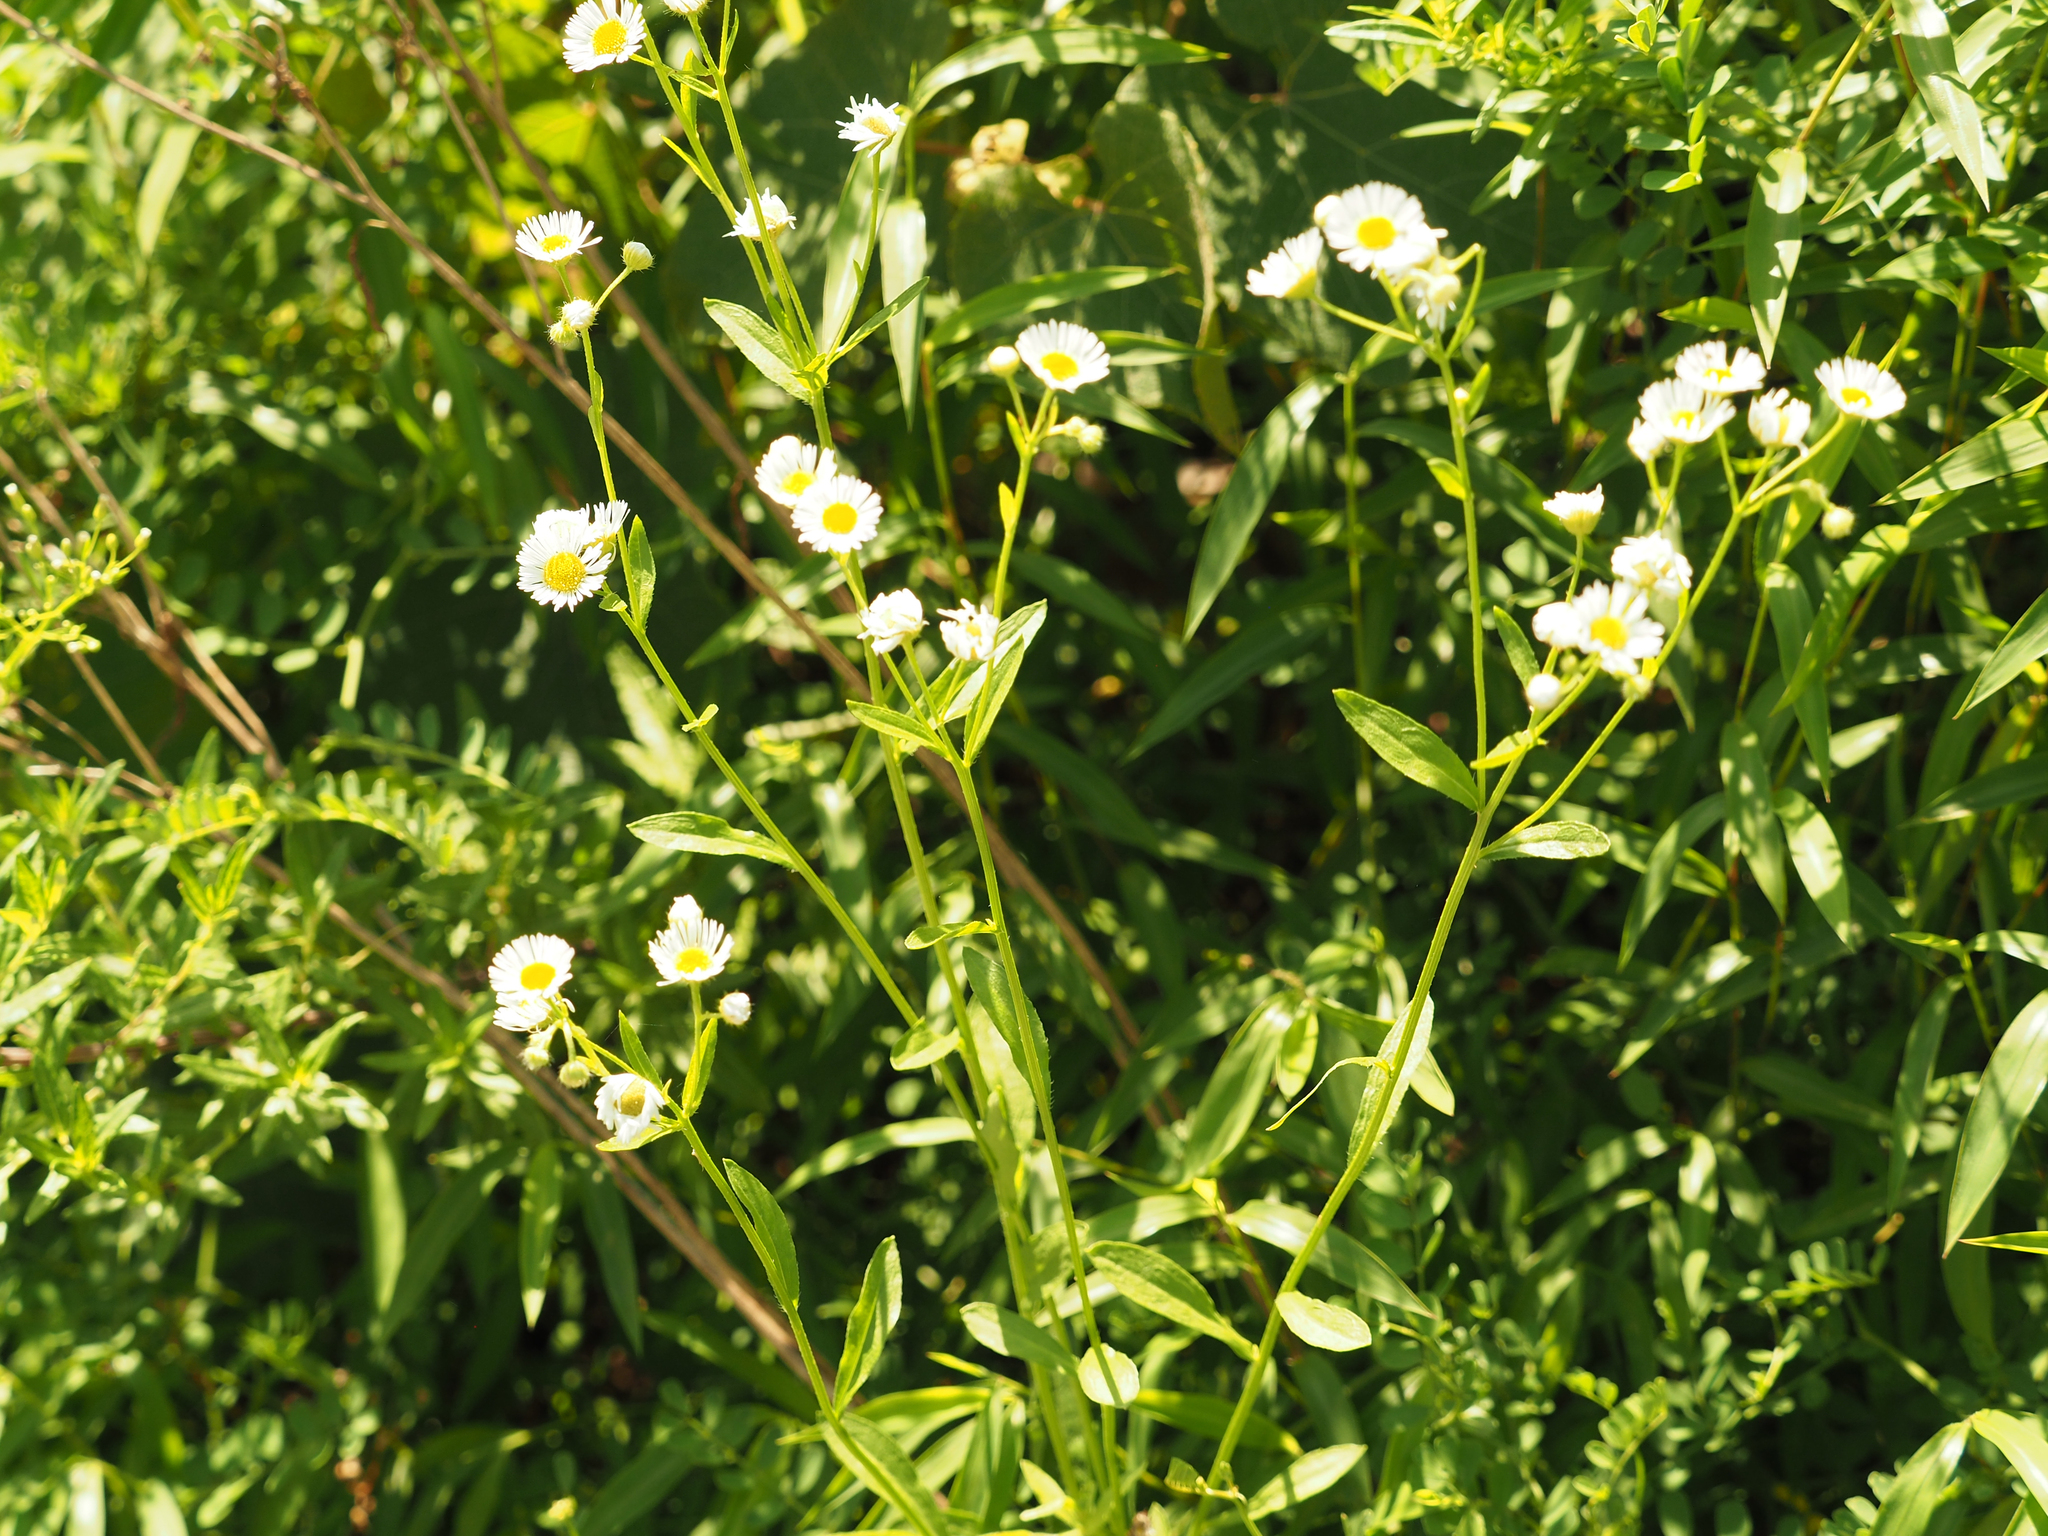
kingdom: Plantae
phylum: Tracheophyta
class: Magnoliopsida
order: Asterales
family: Asteraceae
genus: Erigeron
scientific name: Erigeron strigosus
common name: Common eastern fleabane
